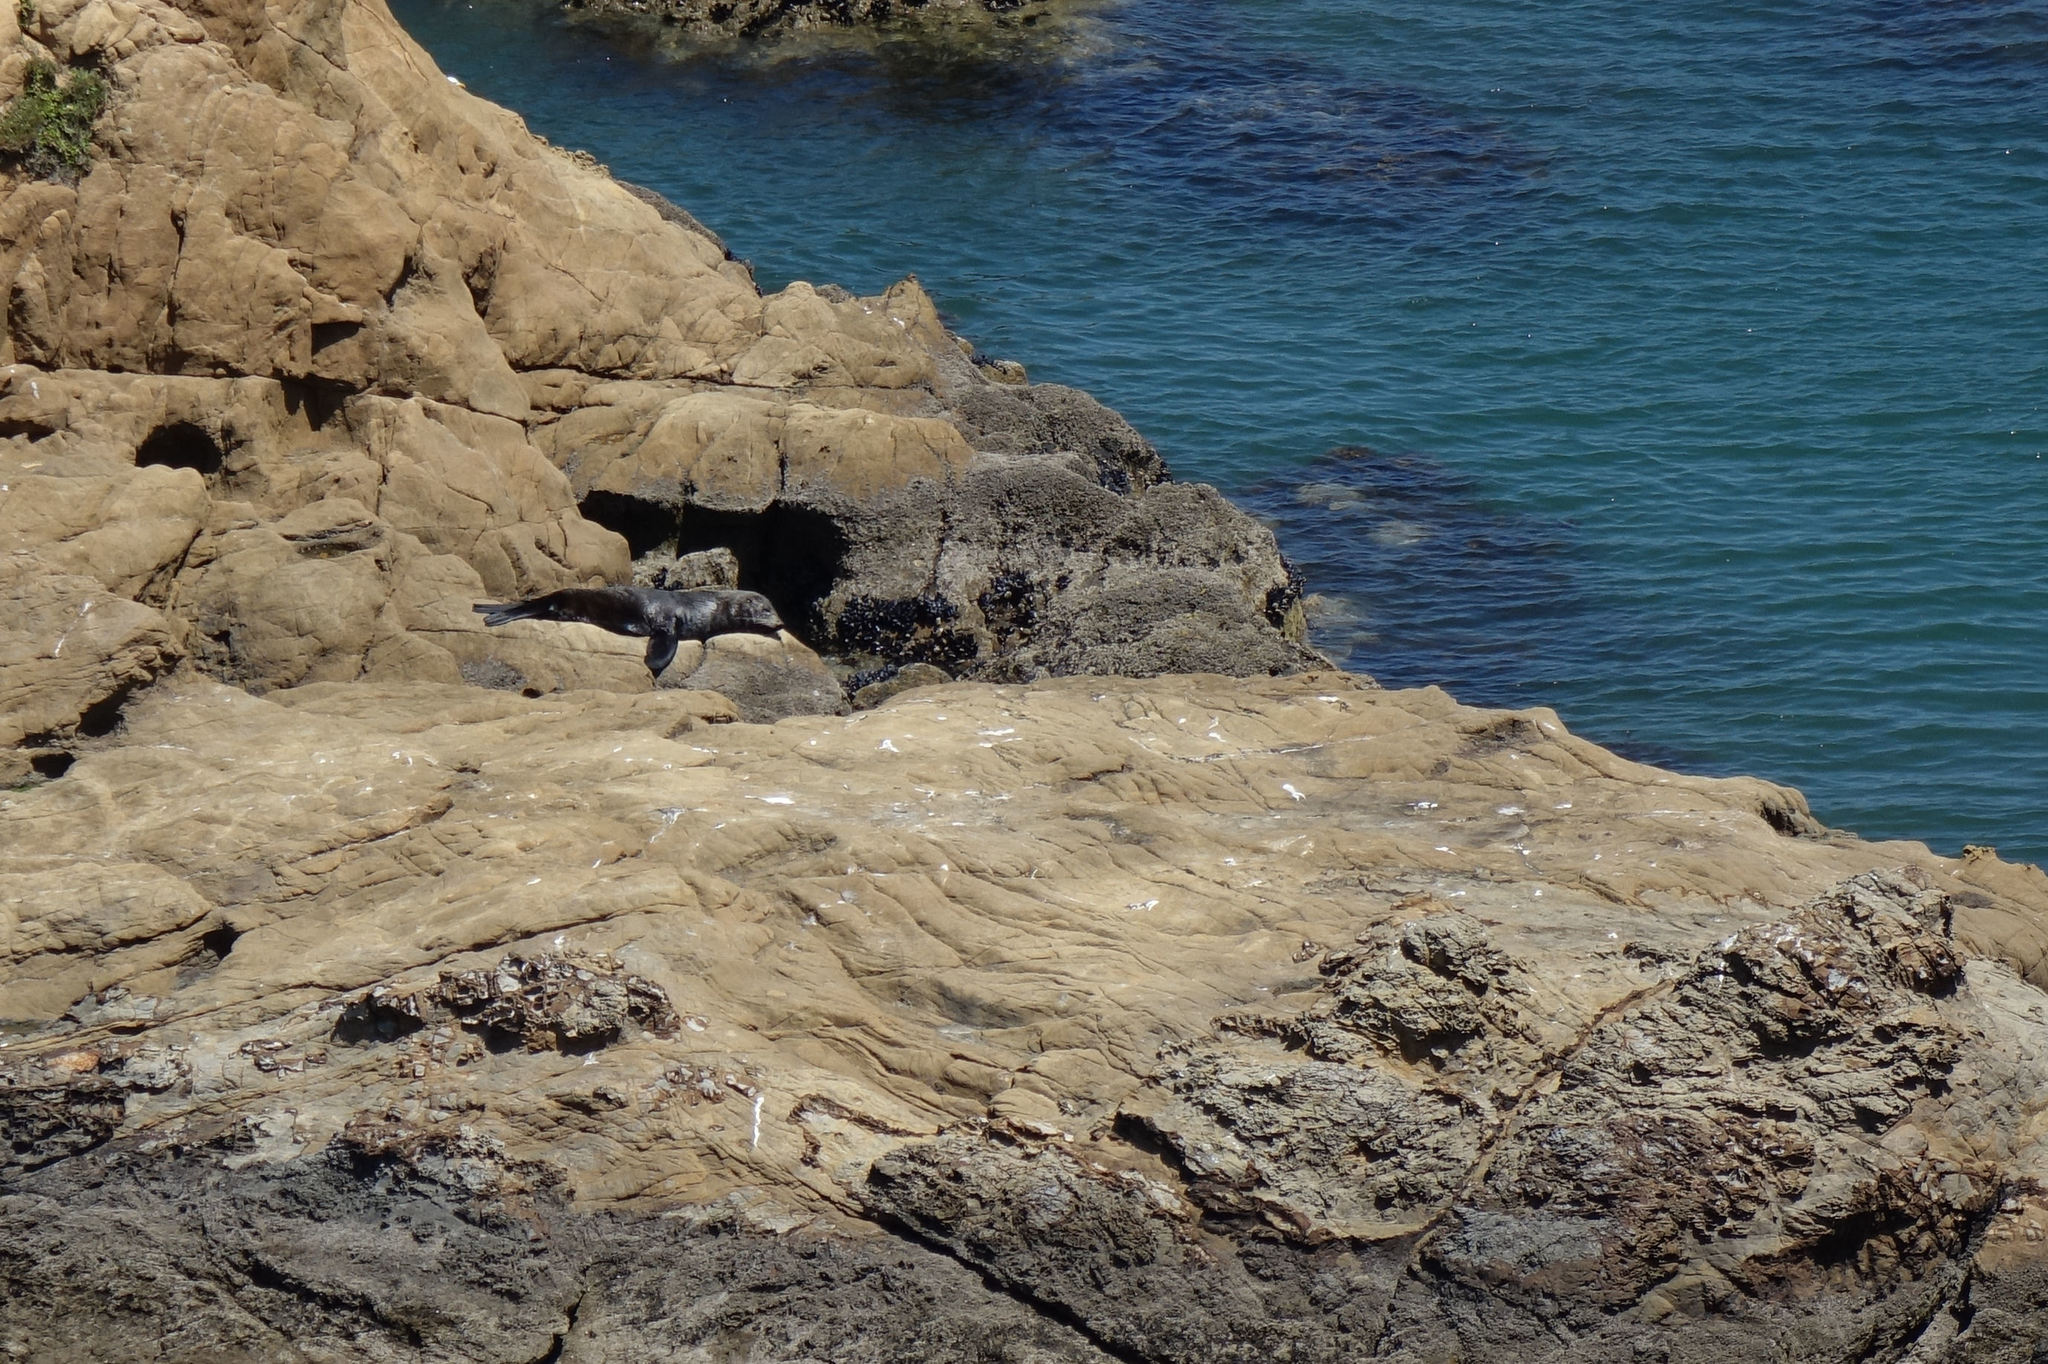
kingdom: Animalia
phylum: Chordata
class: Mammalia
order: Carnivora
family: Otariidae
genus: Arctocephalus
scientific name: Arctocephalus forsteri
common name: New zealand fur seal
